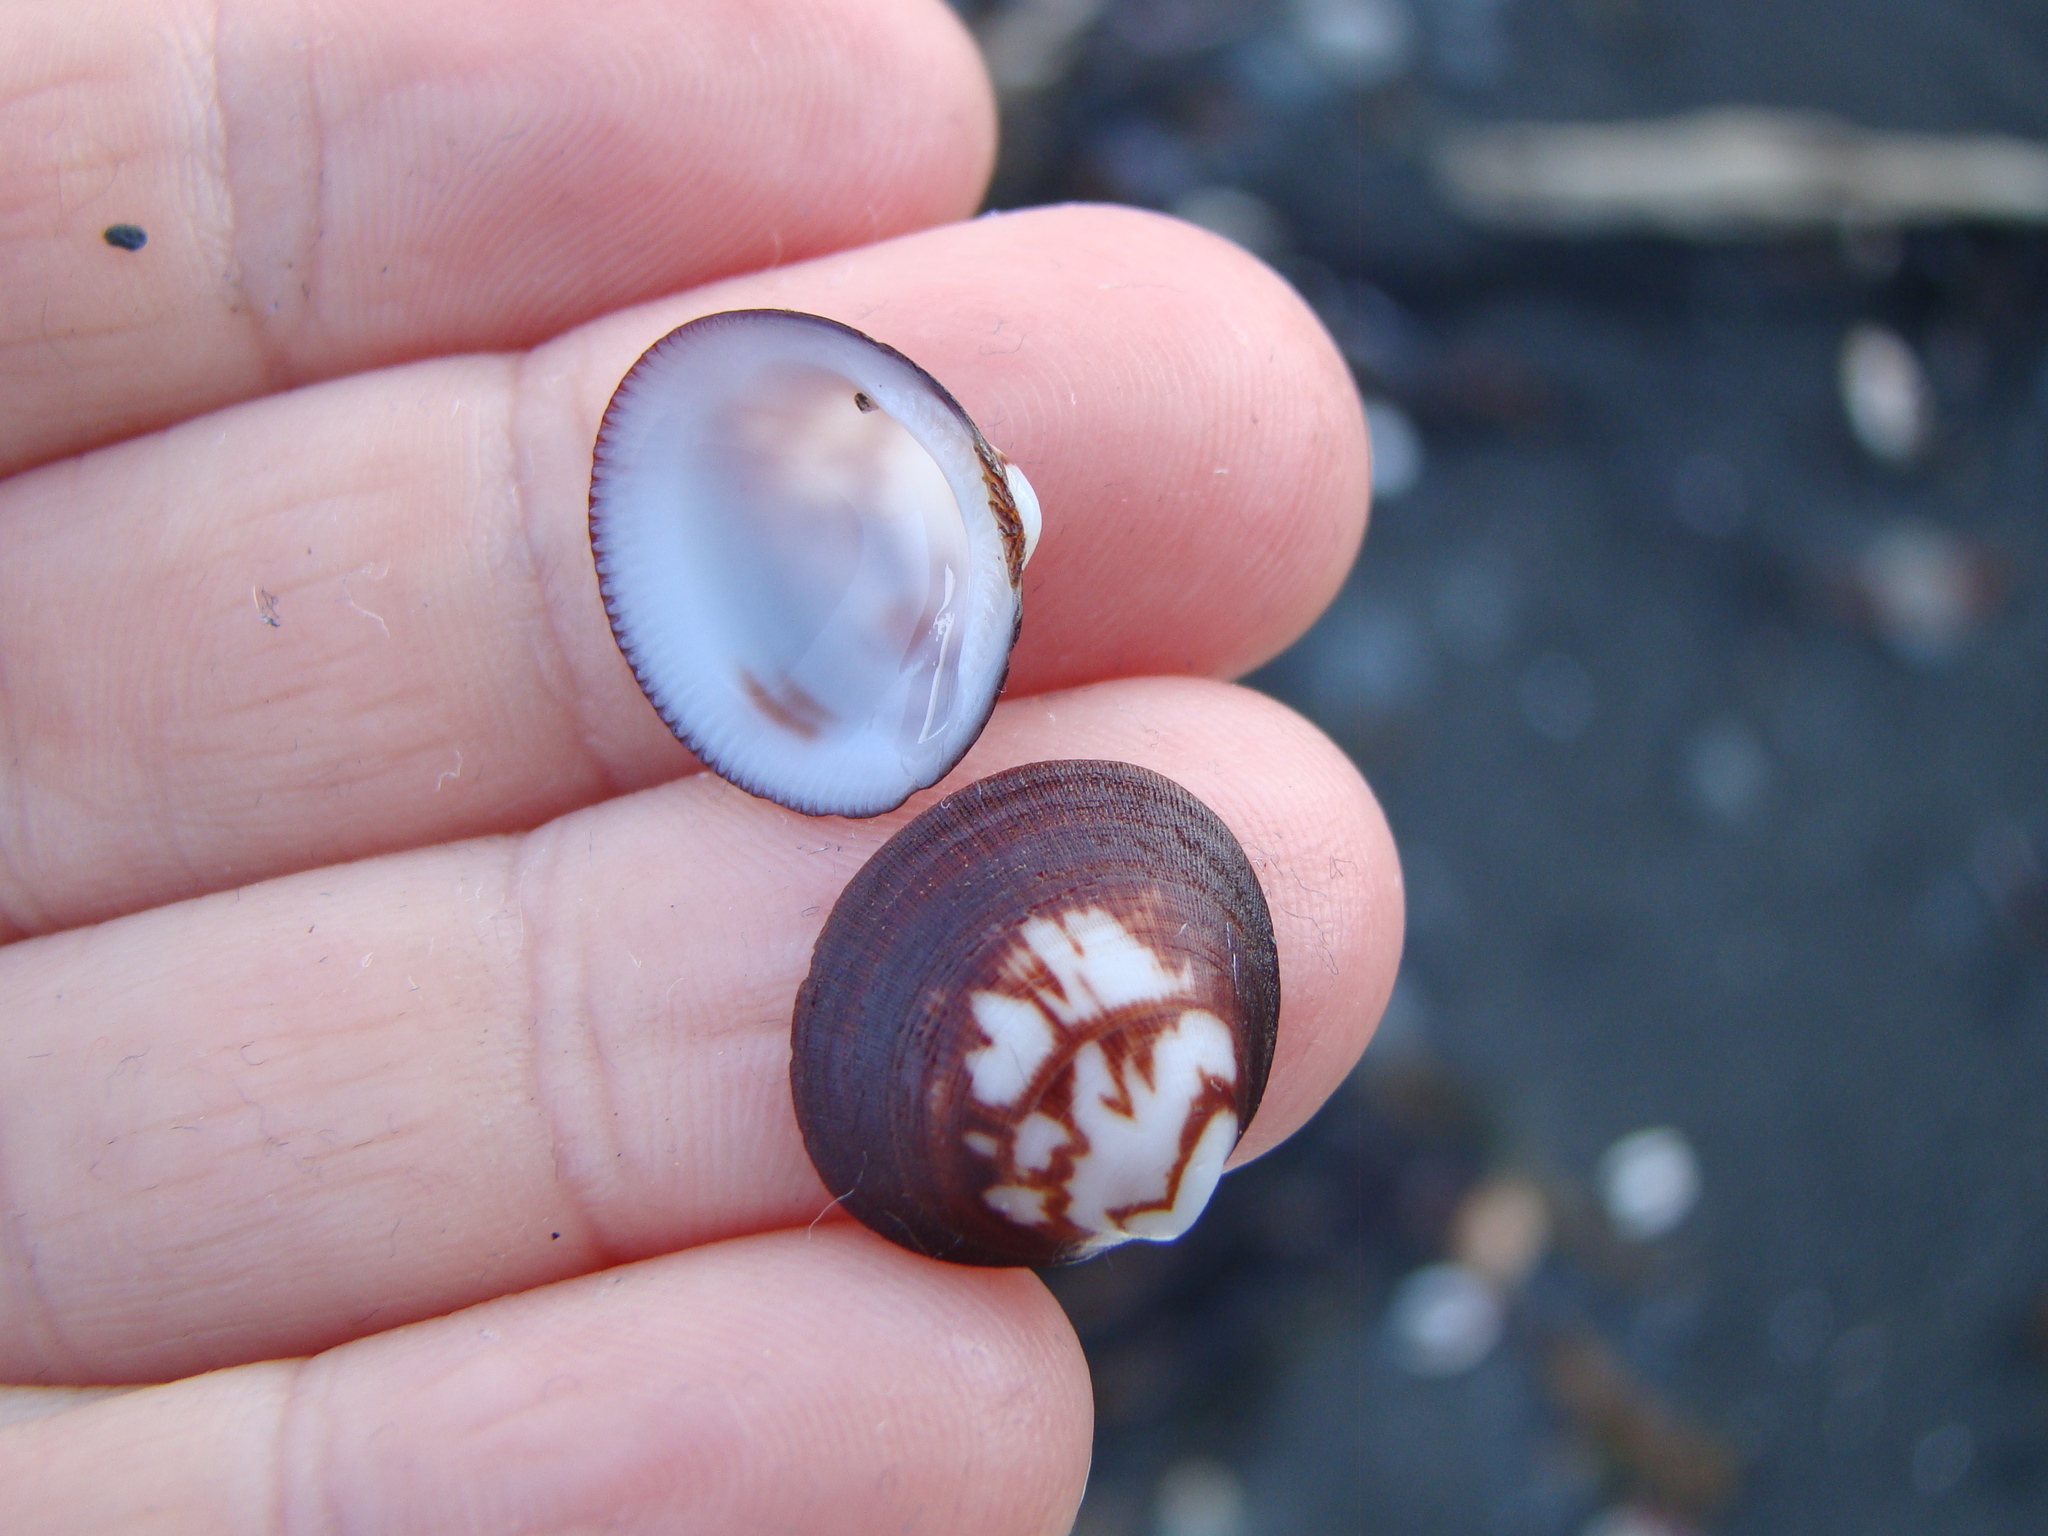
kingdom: Animalia
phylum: Mollusca
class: Bivalvia
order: Arcida
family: Glycymerididae
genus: Glycymeris
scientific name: Glycymeris modesta
